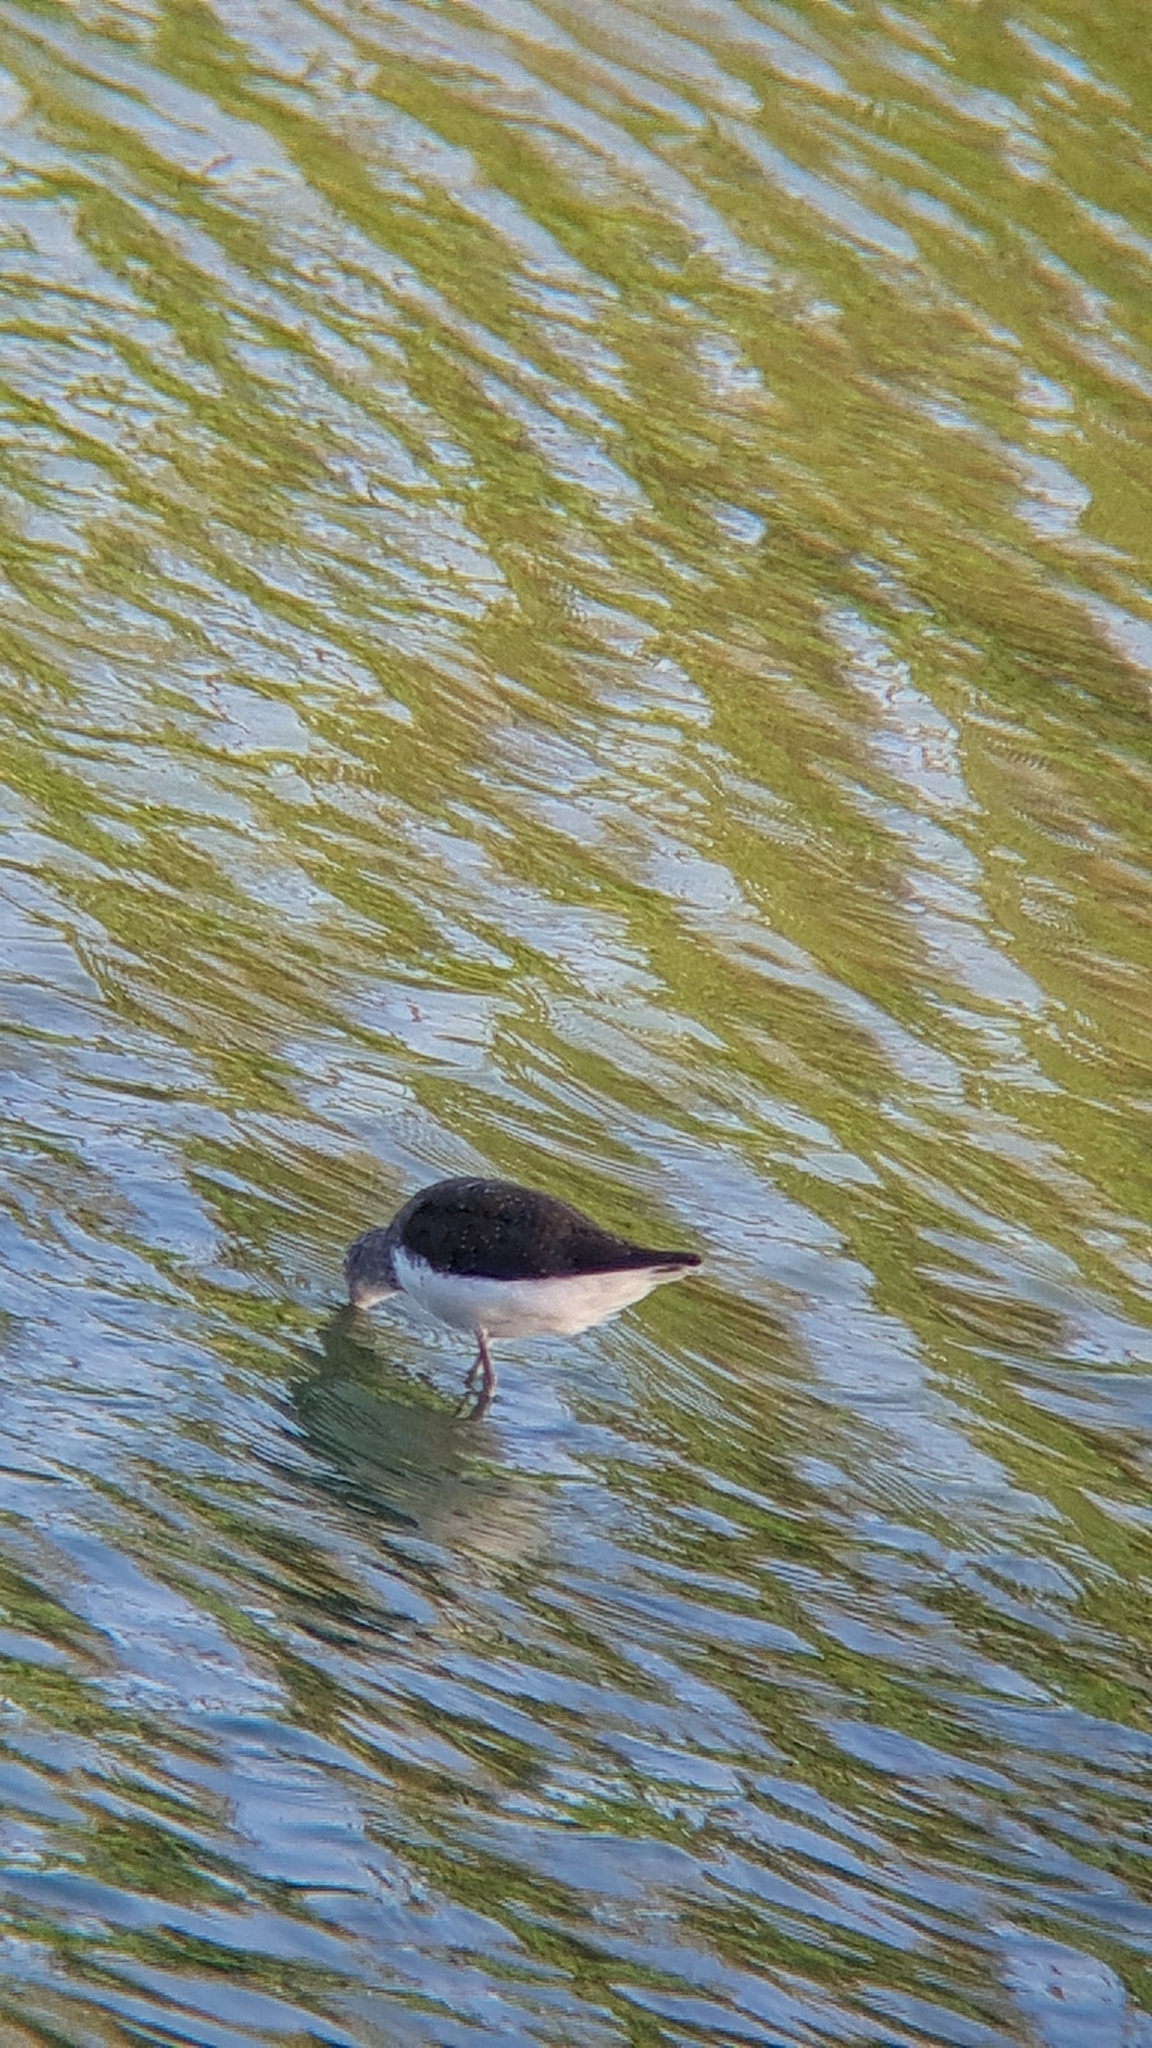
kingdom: Animalia
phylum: Chordata
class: Aves
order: Charadriiformes
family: Scolopacidae
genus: Tringa
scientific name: Tringa ochropus
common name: Green sandpiper
